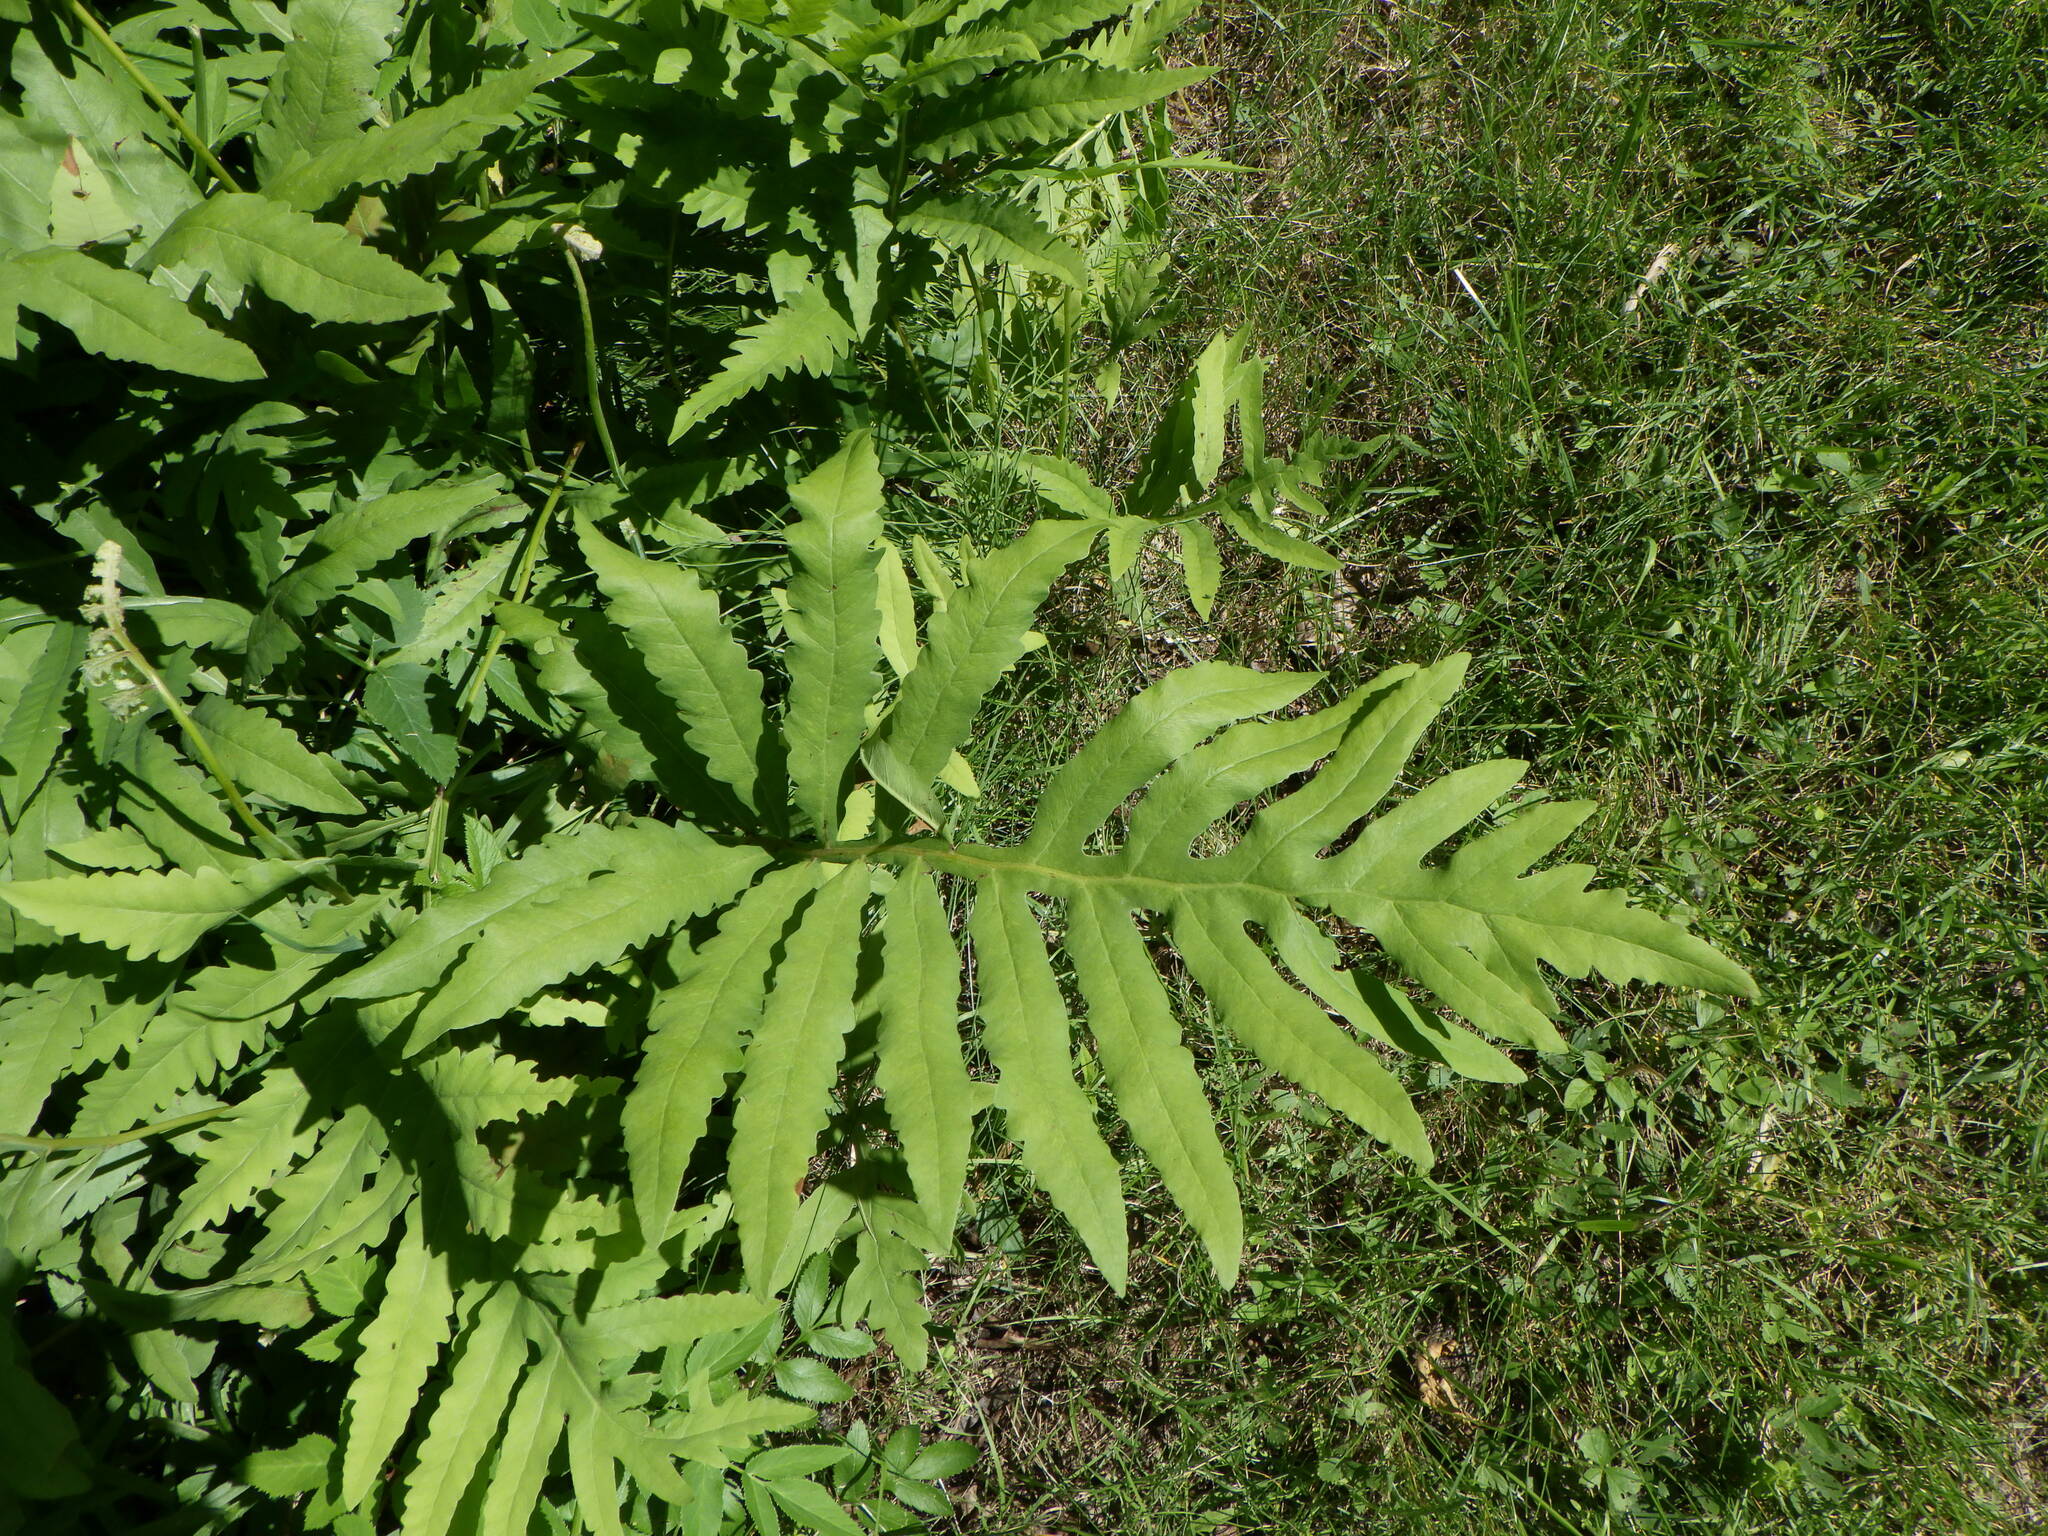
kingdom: Plantae
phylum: Tracheophyta
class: Polypodiopsida
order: Polypodiales
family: Onocleaceae
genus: Onoclea
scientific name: Onoclea sensibilis
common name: Sensitive fern
